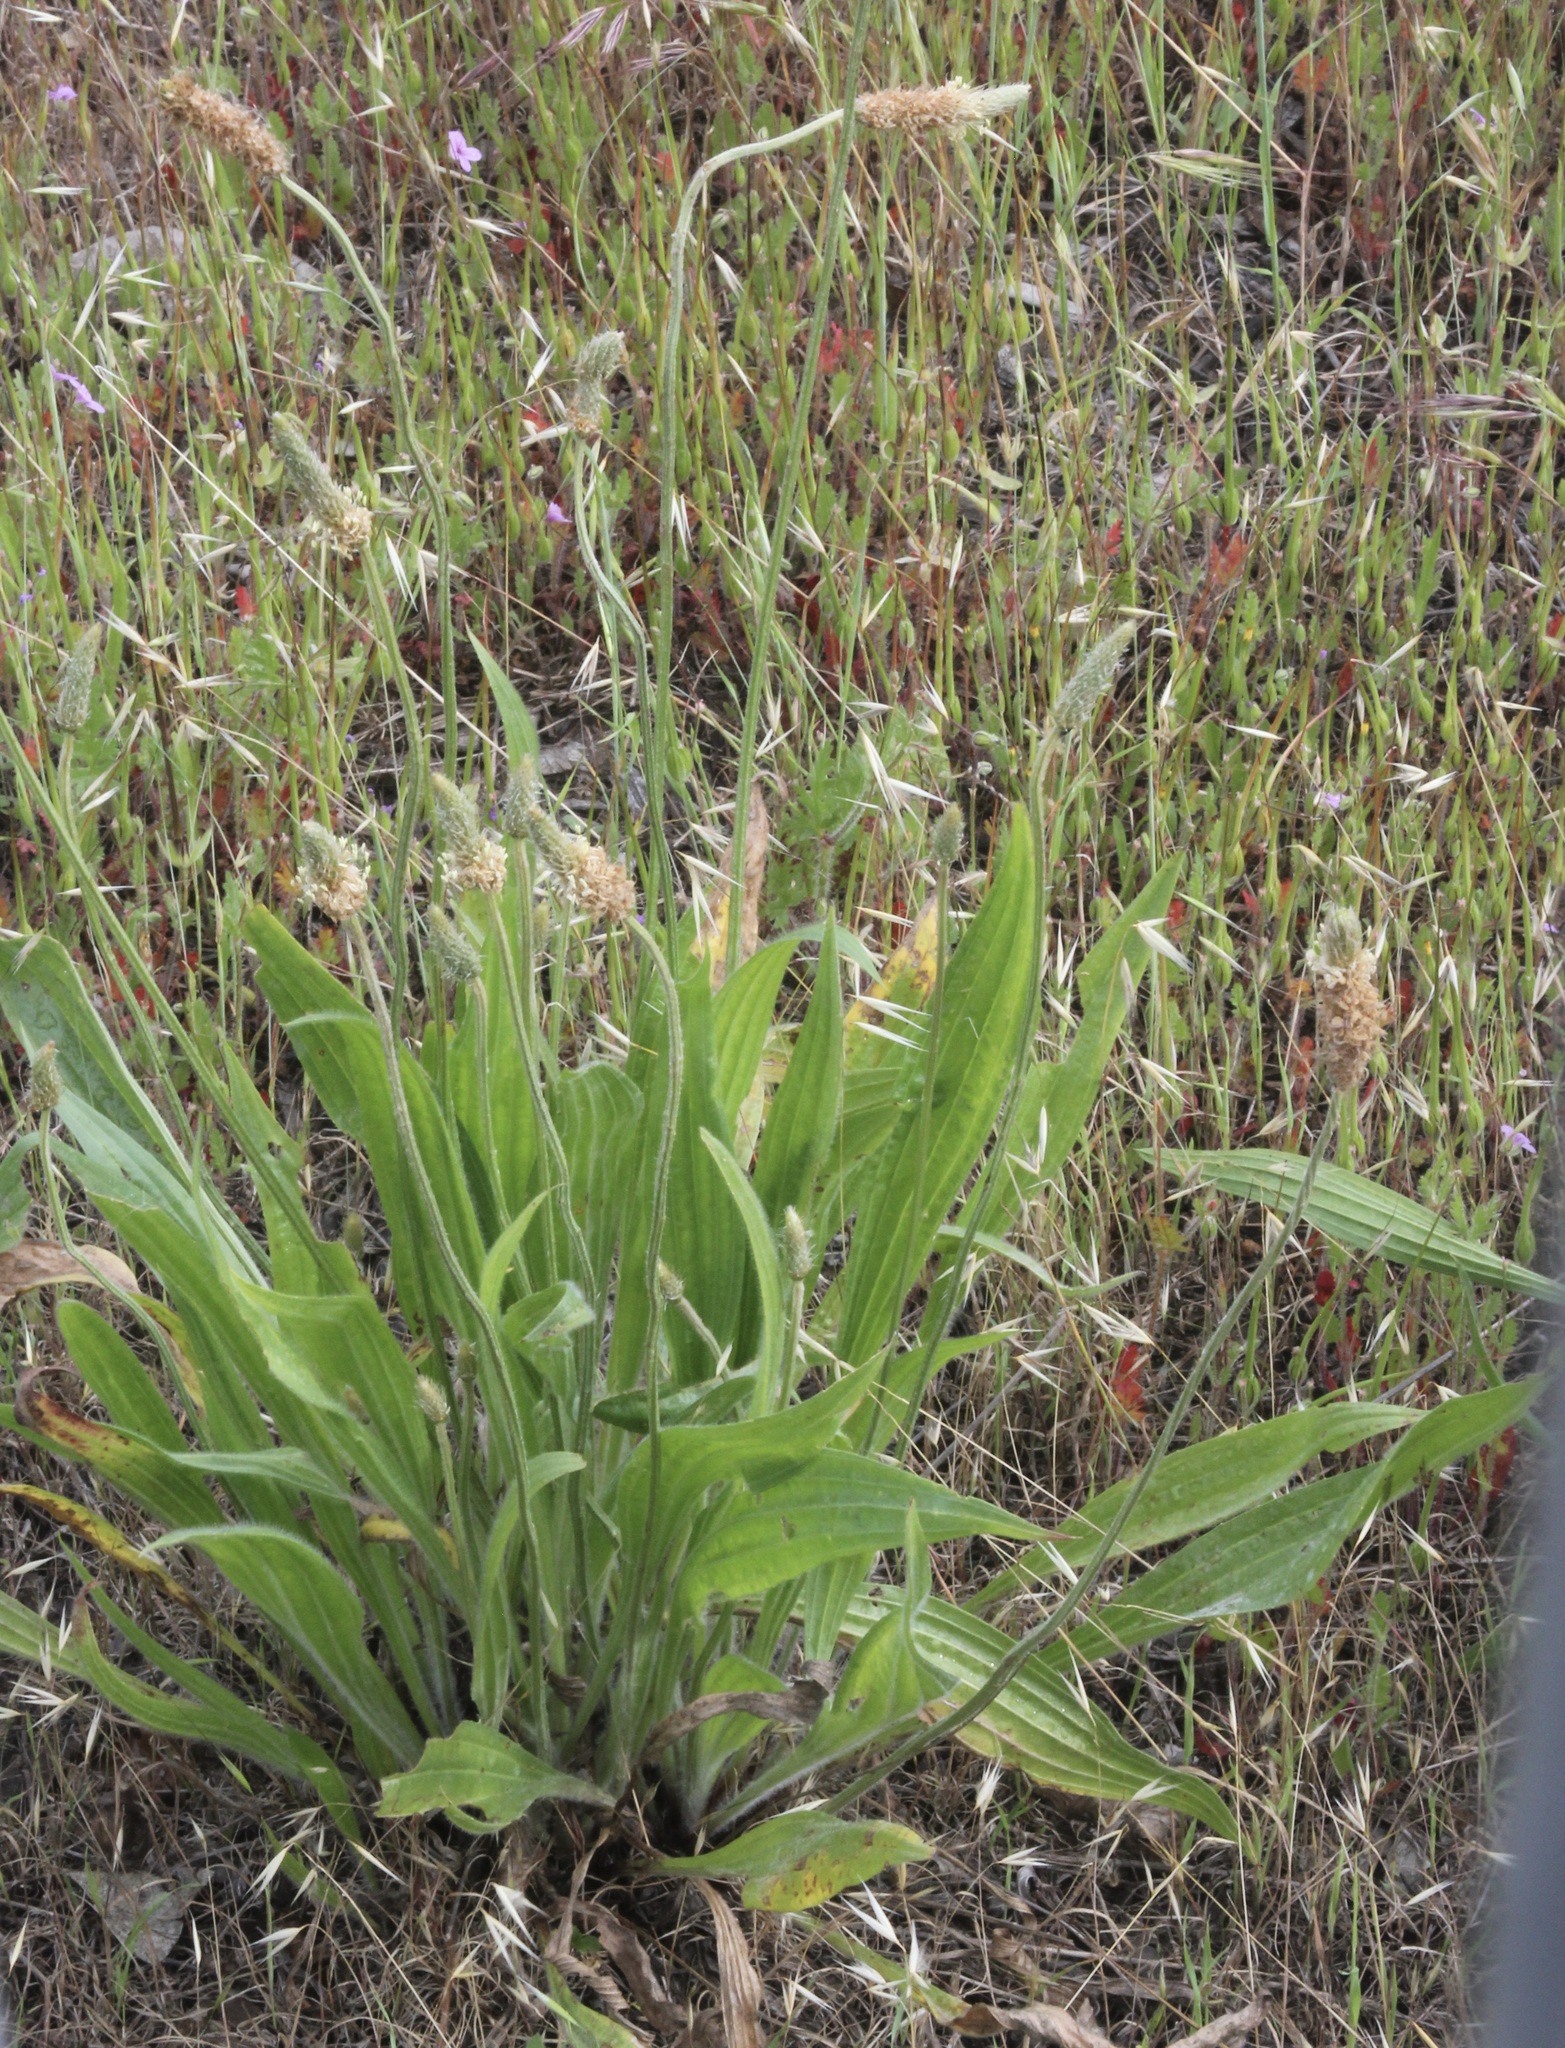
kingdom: Plantae
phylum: Tracheophyta
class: Magnoliopsida
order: Lamiales
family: Plantaginaceae
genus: Plantago
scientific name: Plantago lanceolata
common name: Ribwort plantain
